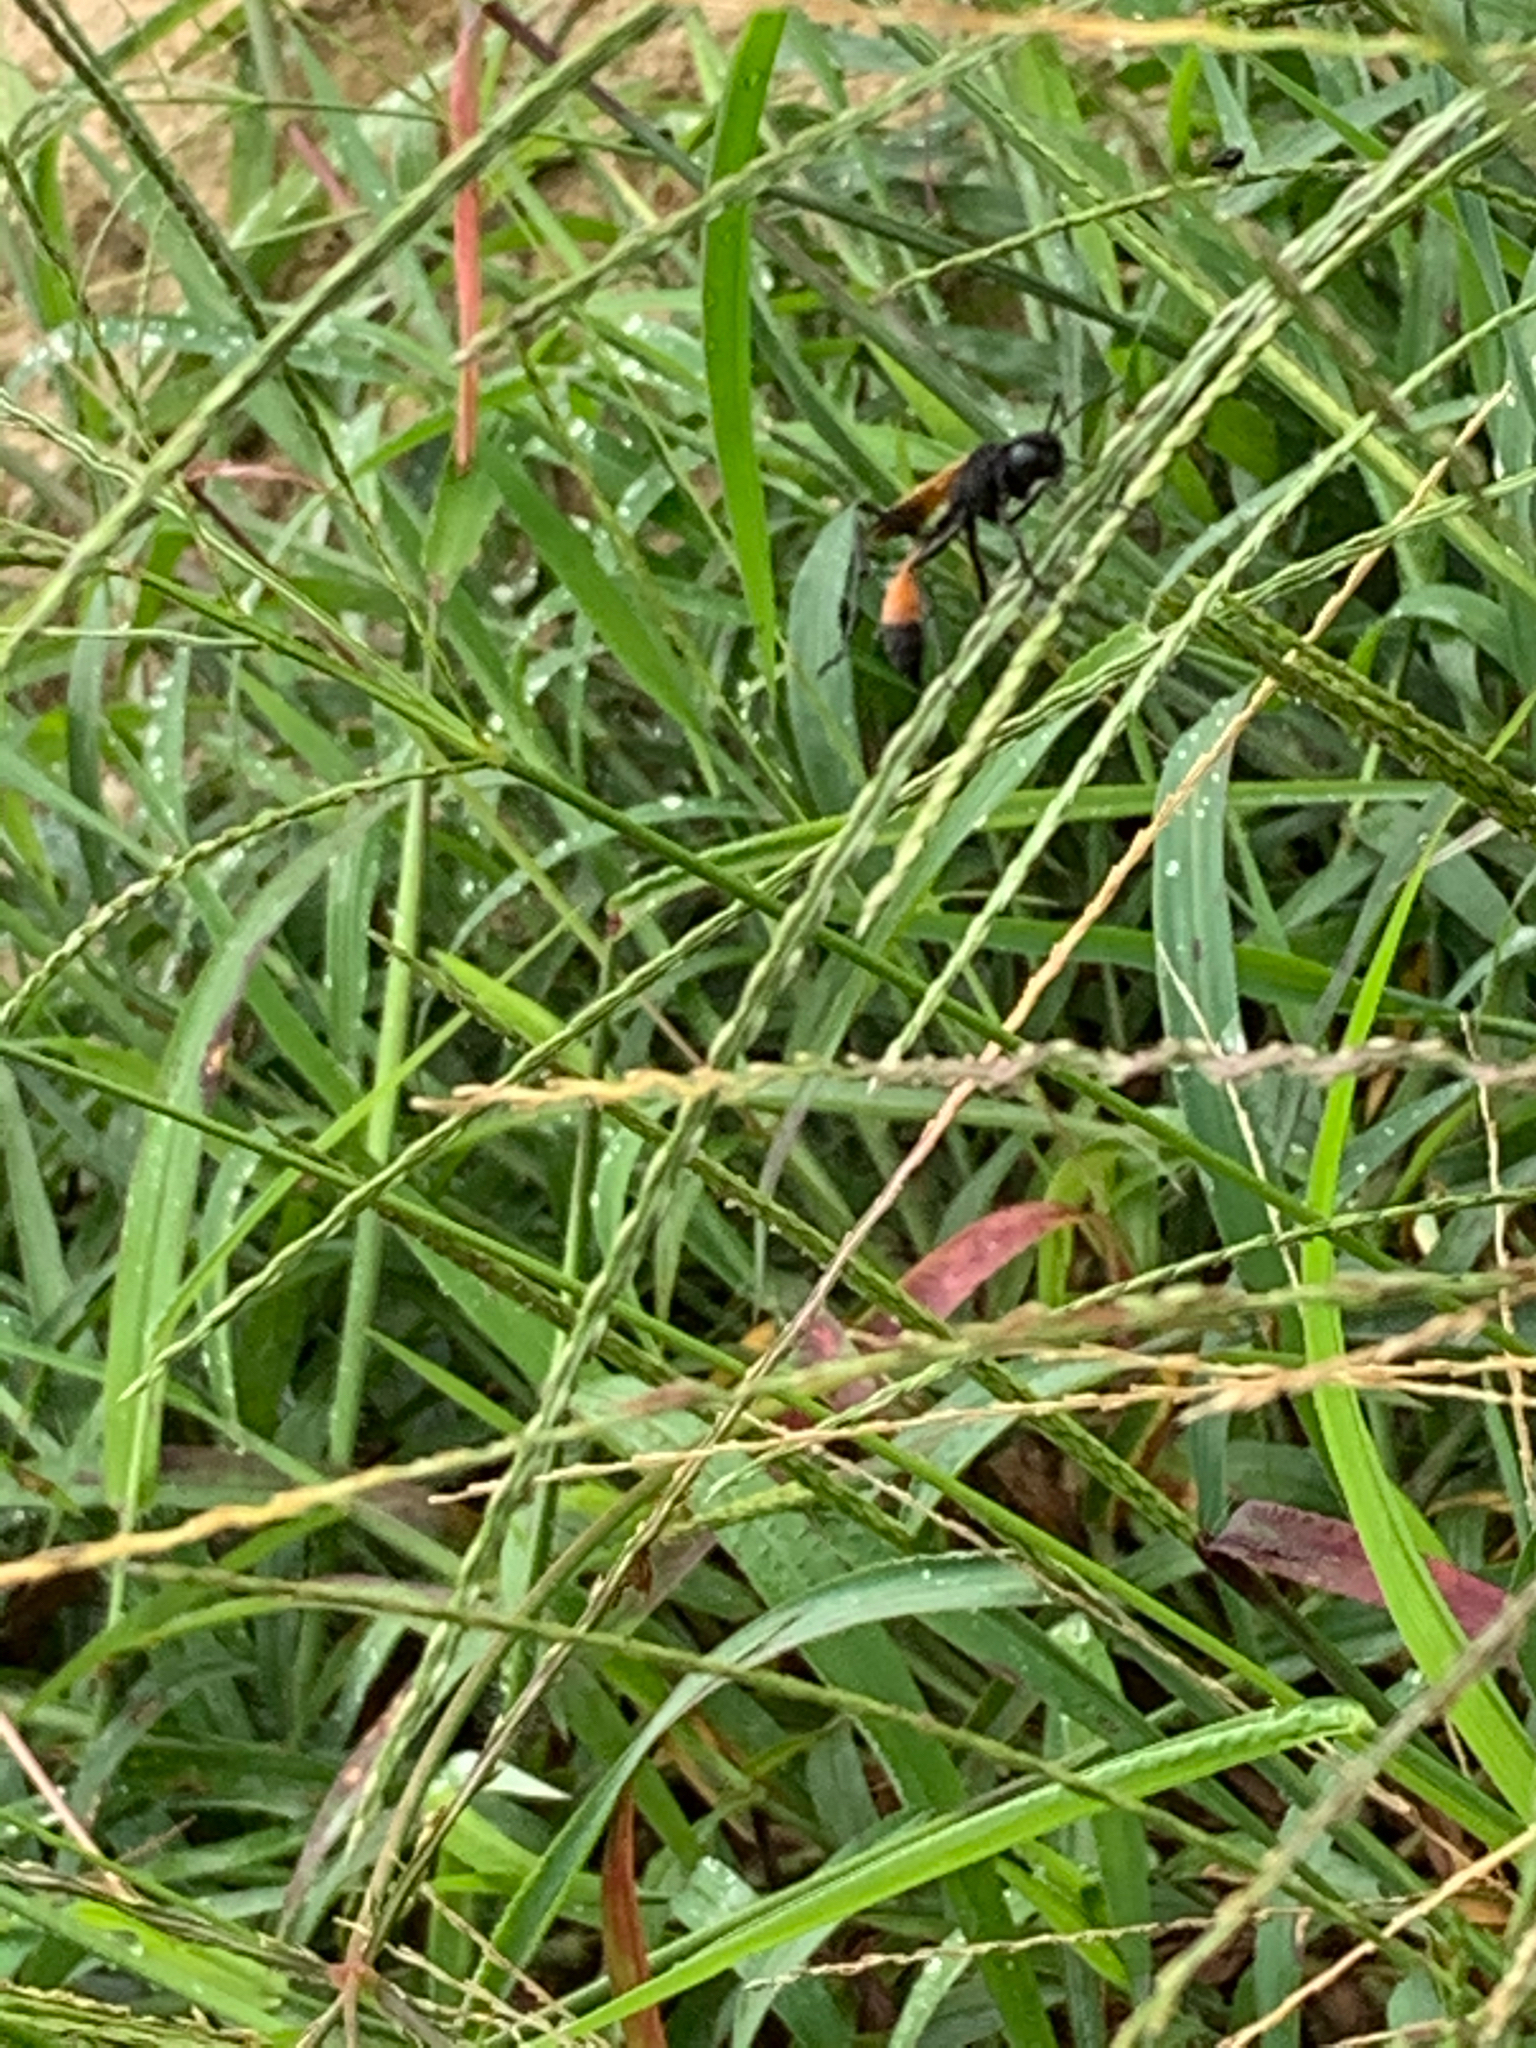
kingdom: Animalia
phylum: Arthropoda
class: Insecta
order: Hymenoptera
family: Sphecidae
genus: Ammophila
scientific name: Ammophila pictipennis
